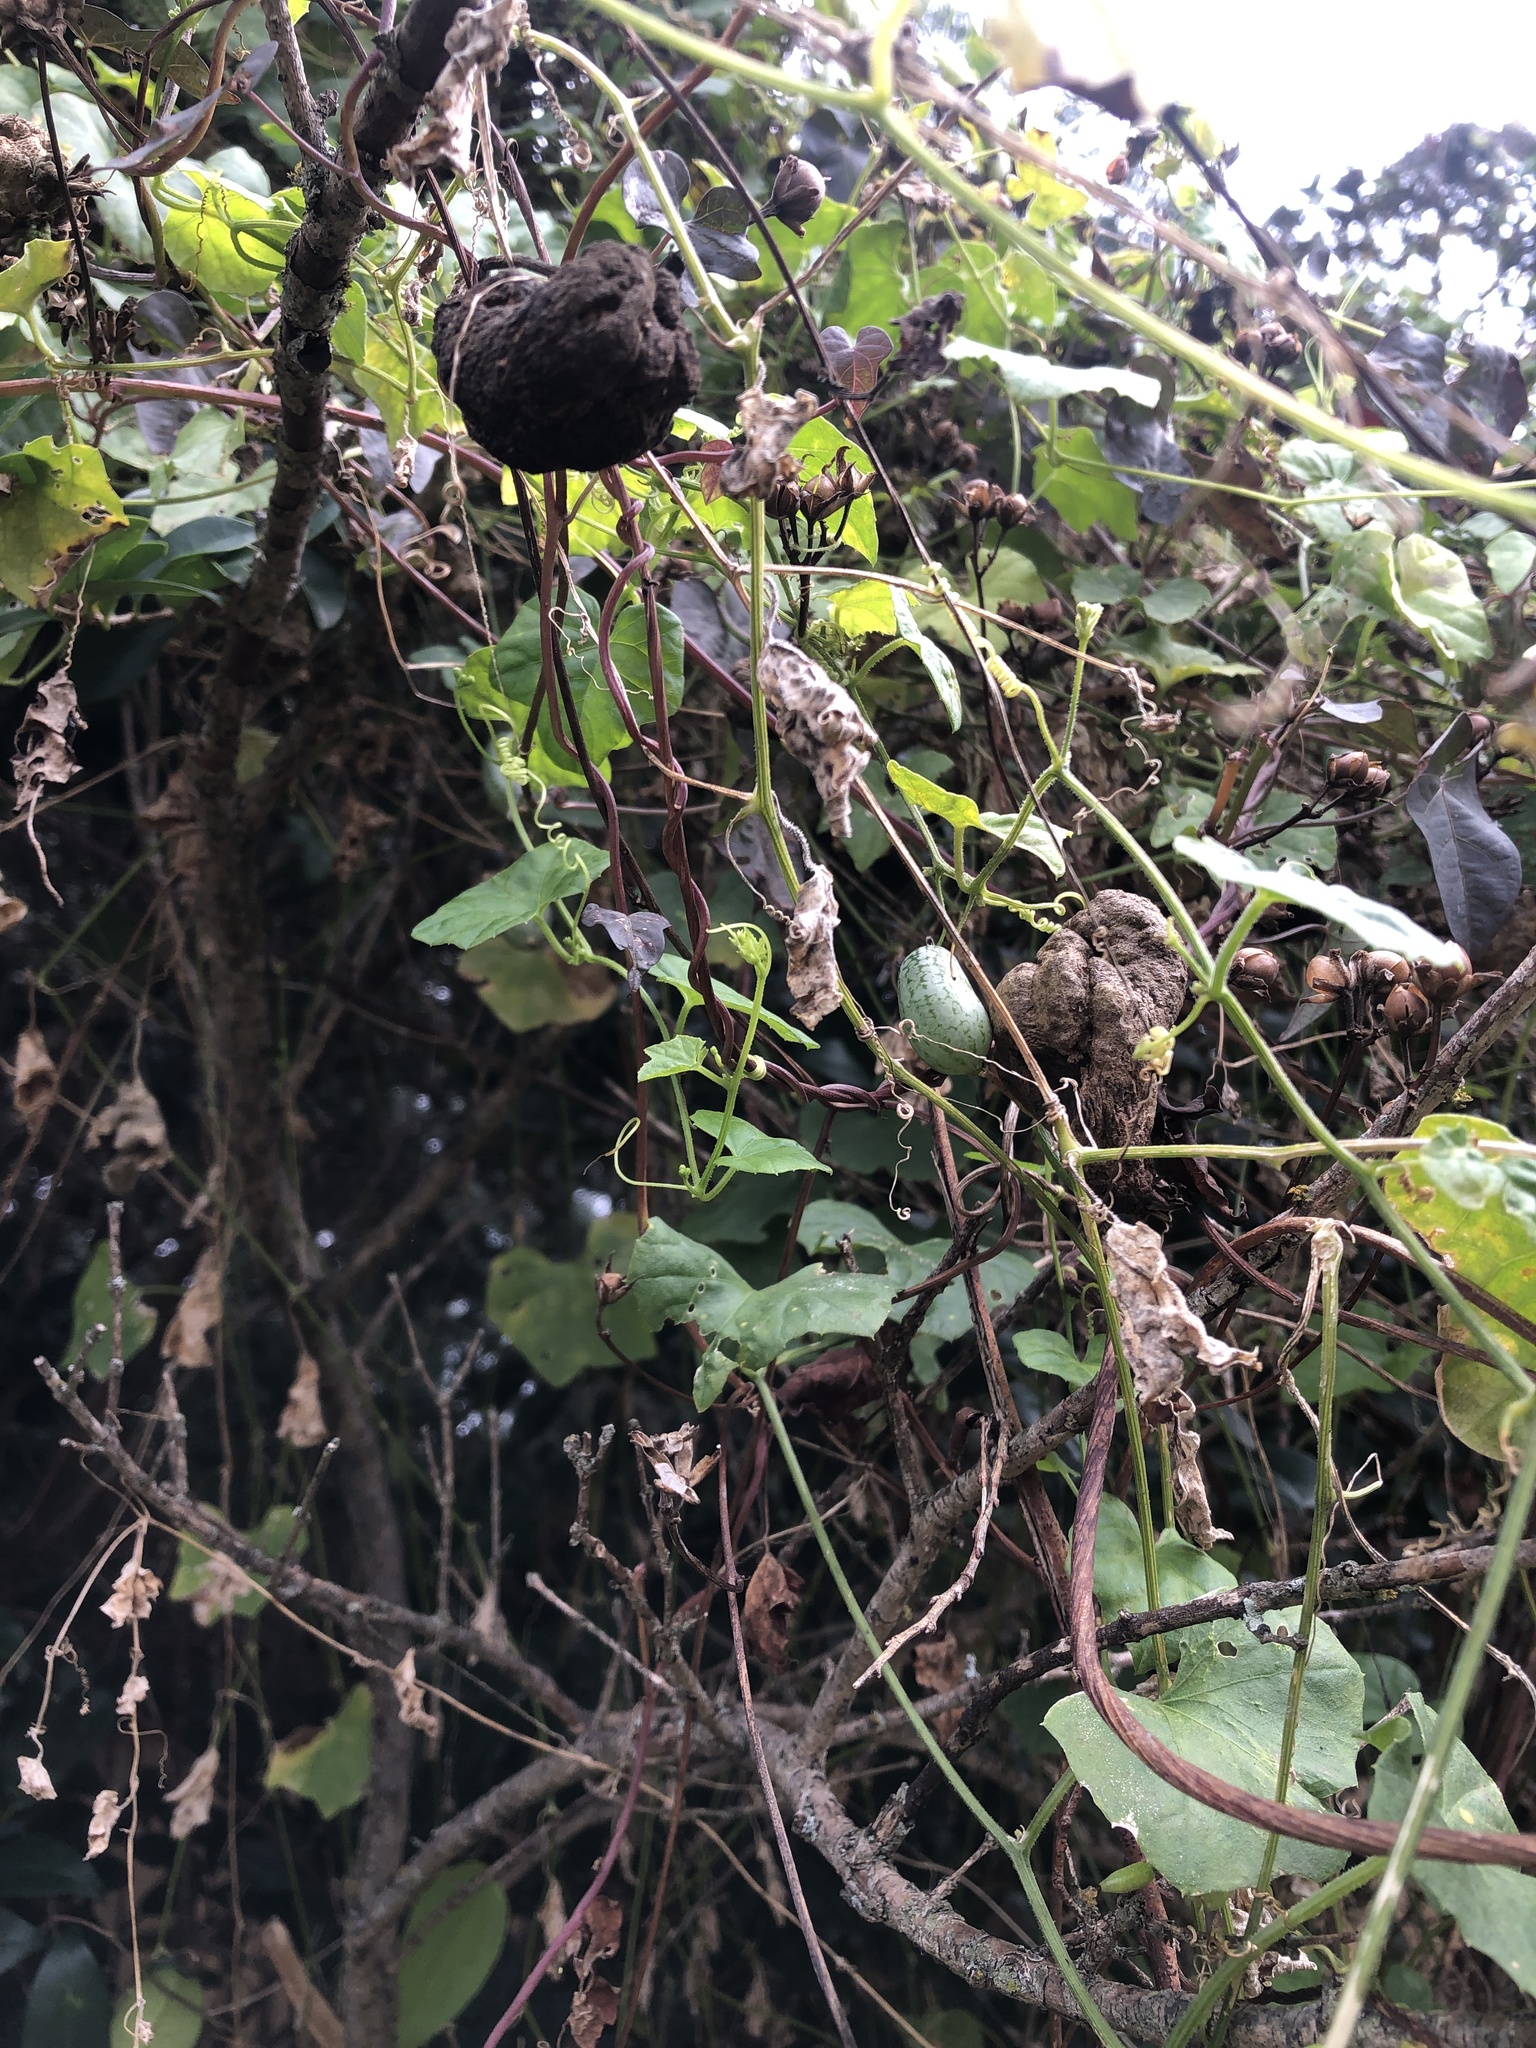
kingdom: Plantae
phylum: Tracheophyta
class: Magnoliopsida
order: Cucurbitales
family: Cucurbitaceae
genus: Melothria
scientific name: Melothria pendula
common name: Creeping-cucumber
